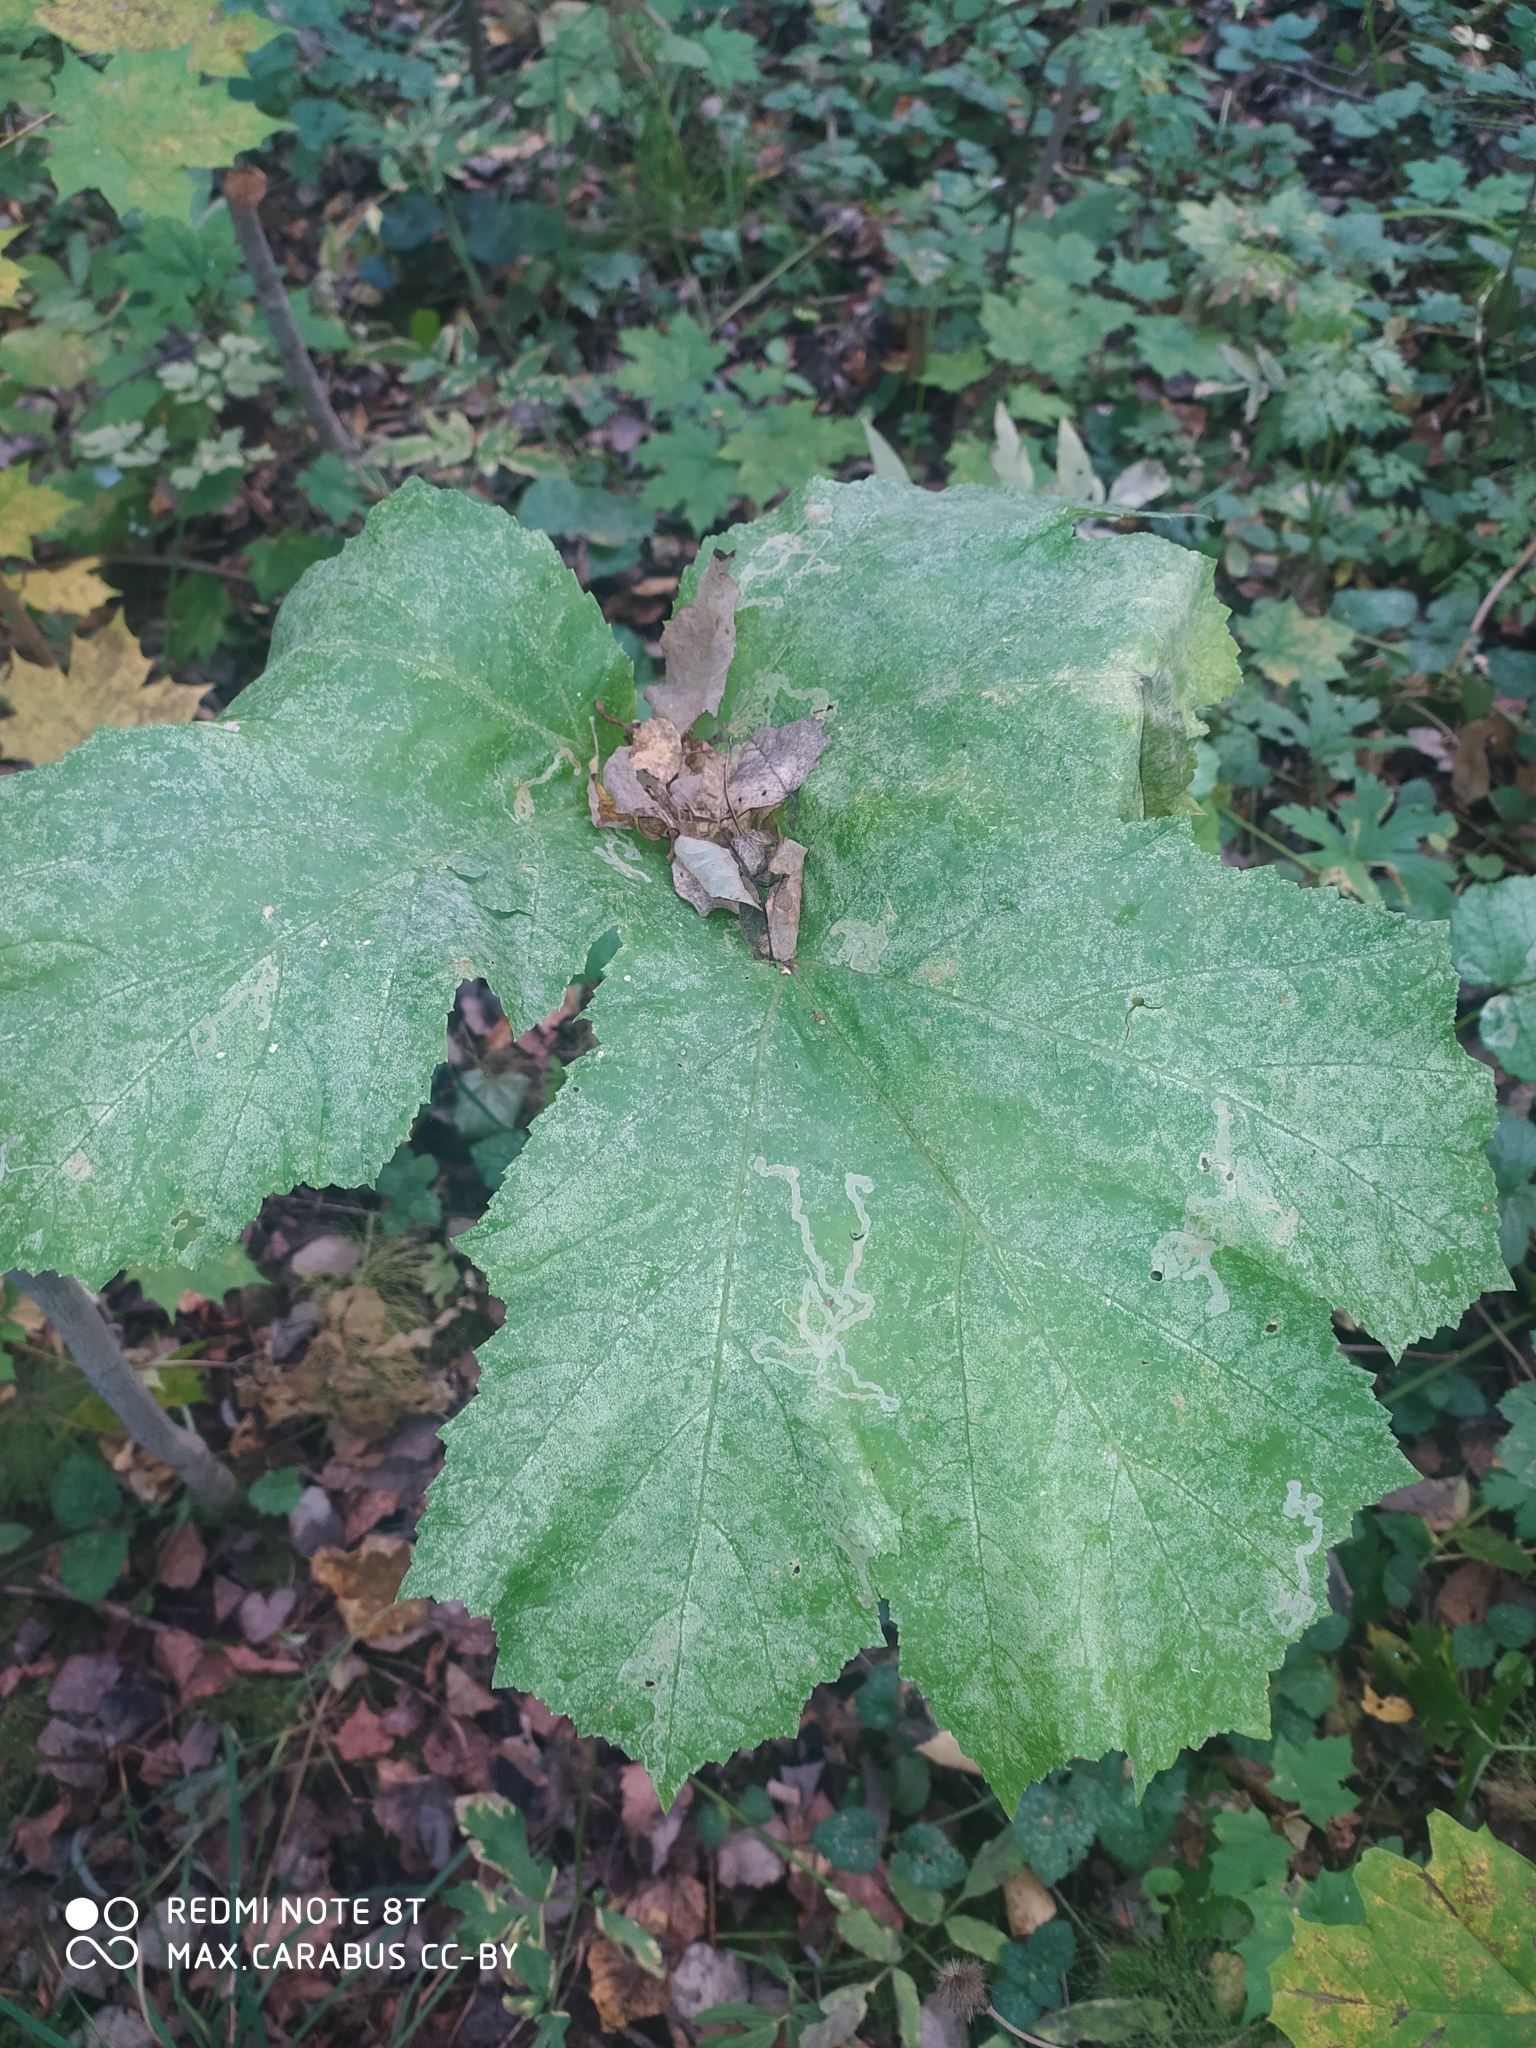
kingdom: Plantae
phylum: Tracheophyta
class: Magnoliopsida
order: Apiales
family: Apiaceae
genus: Heracleum
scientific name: Heracleum sosnowskyi
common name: Sosnowsky's hogweed
